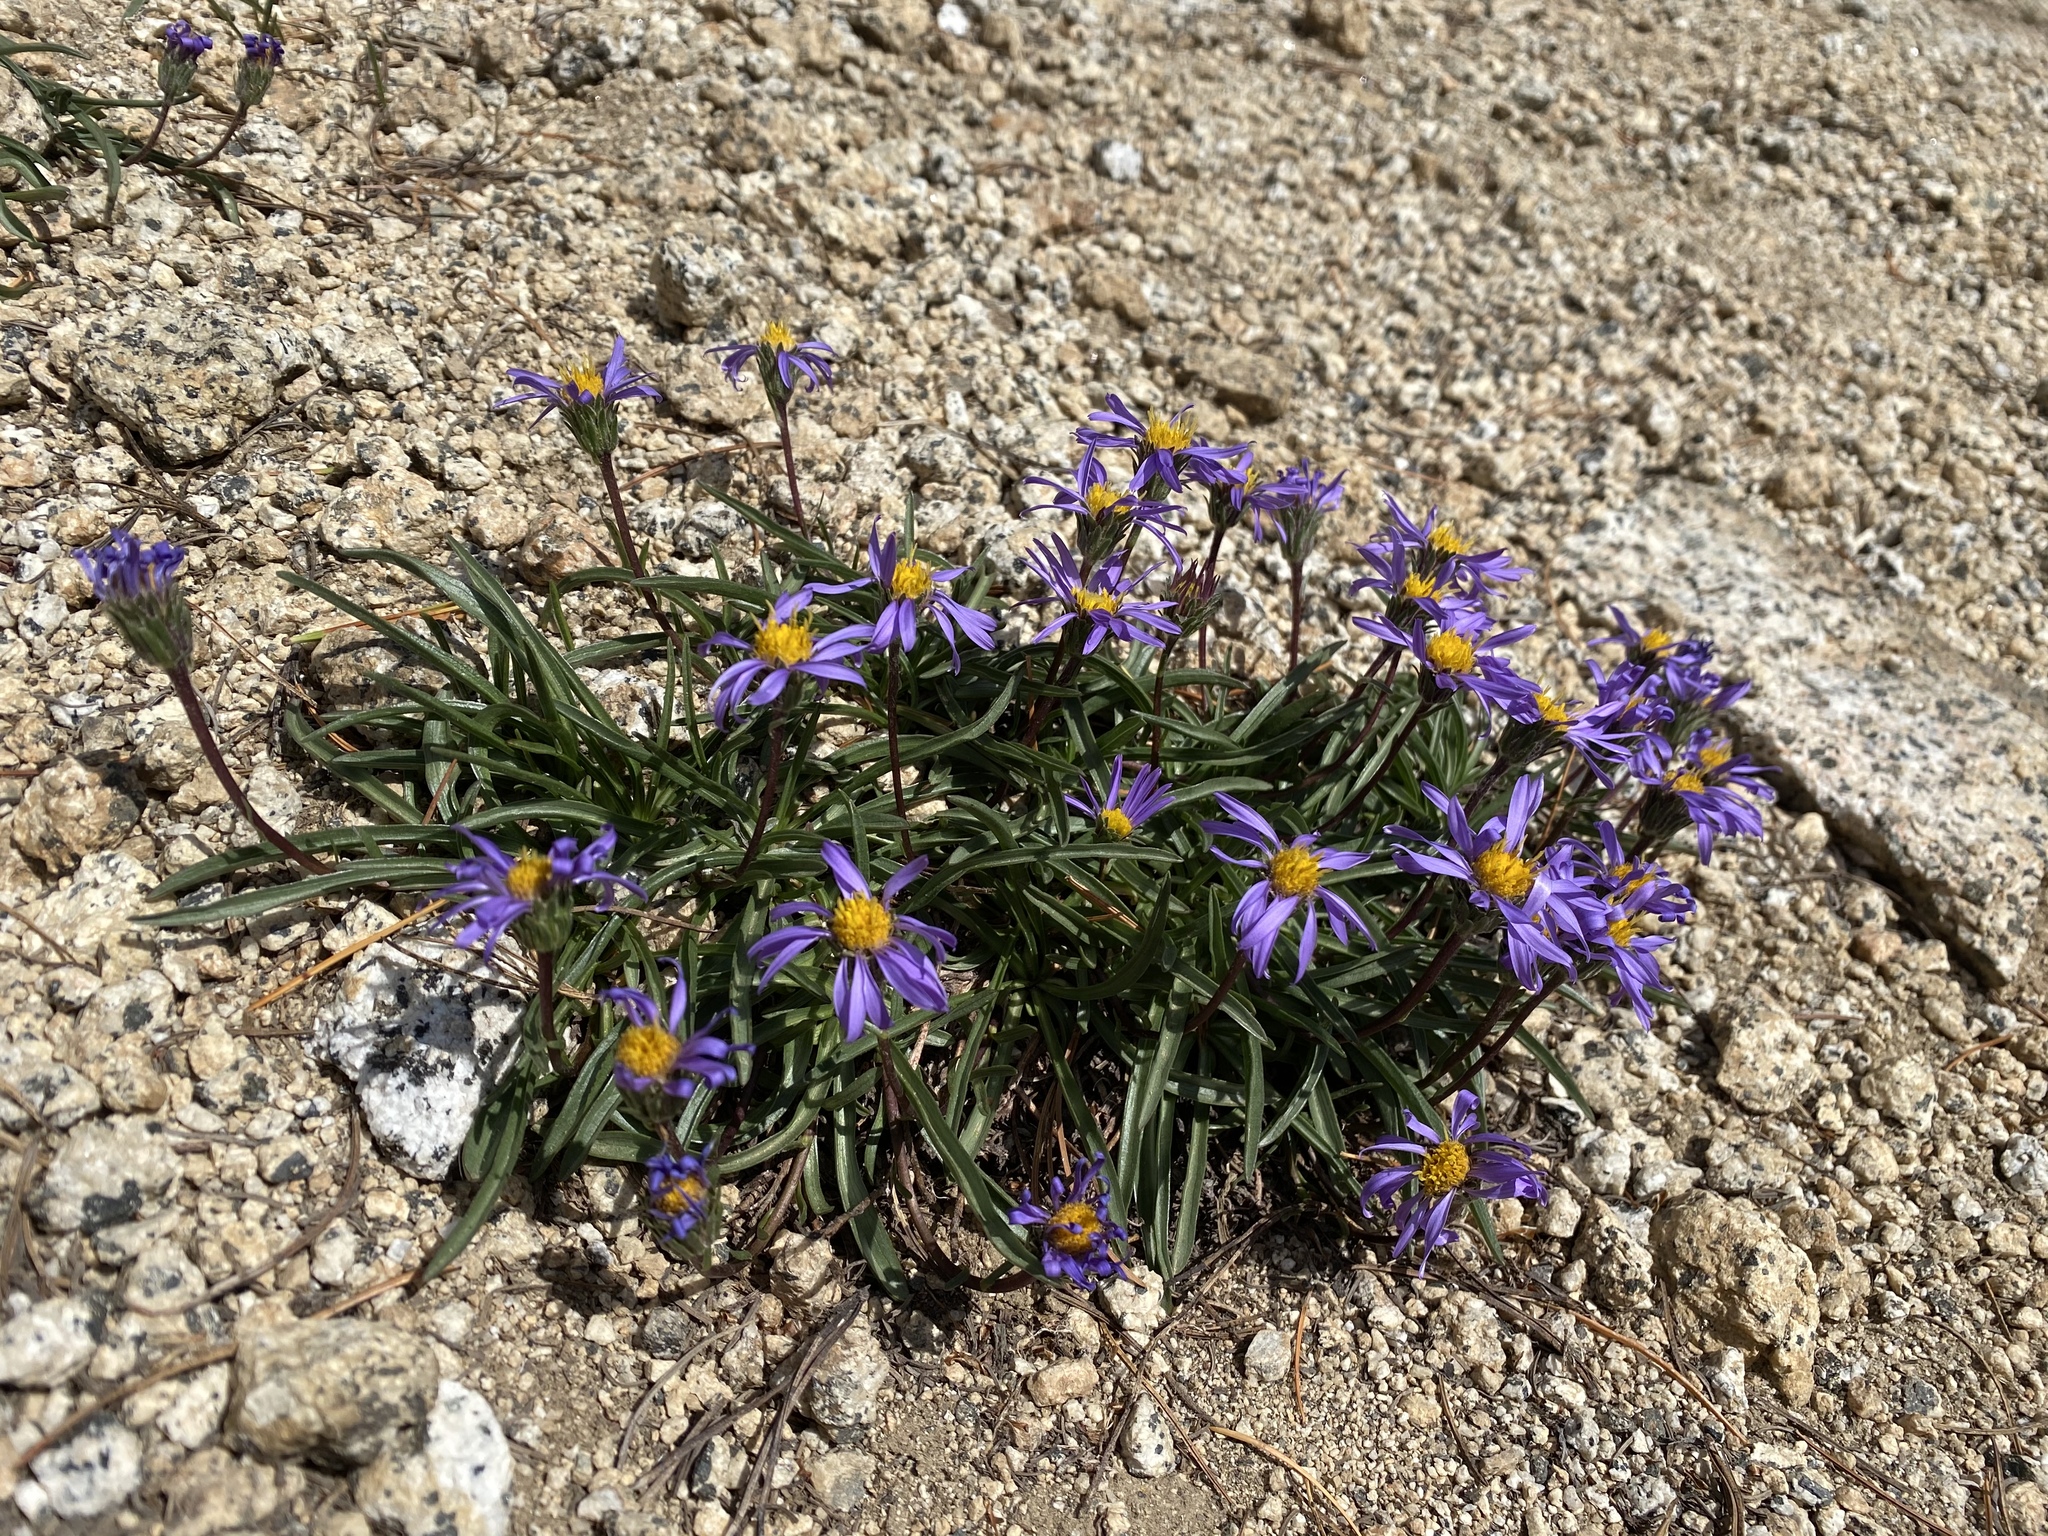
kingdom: Plantae
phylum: Tracheophyta
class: Magnoliopsida
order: Asterales
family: Asteraceae
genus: Oreostemma
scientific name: Oreostemma alpigenum
